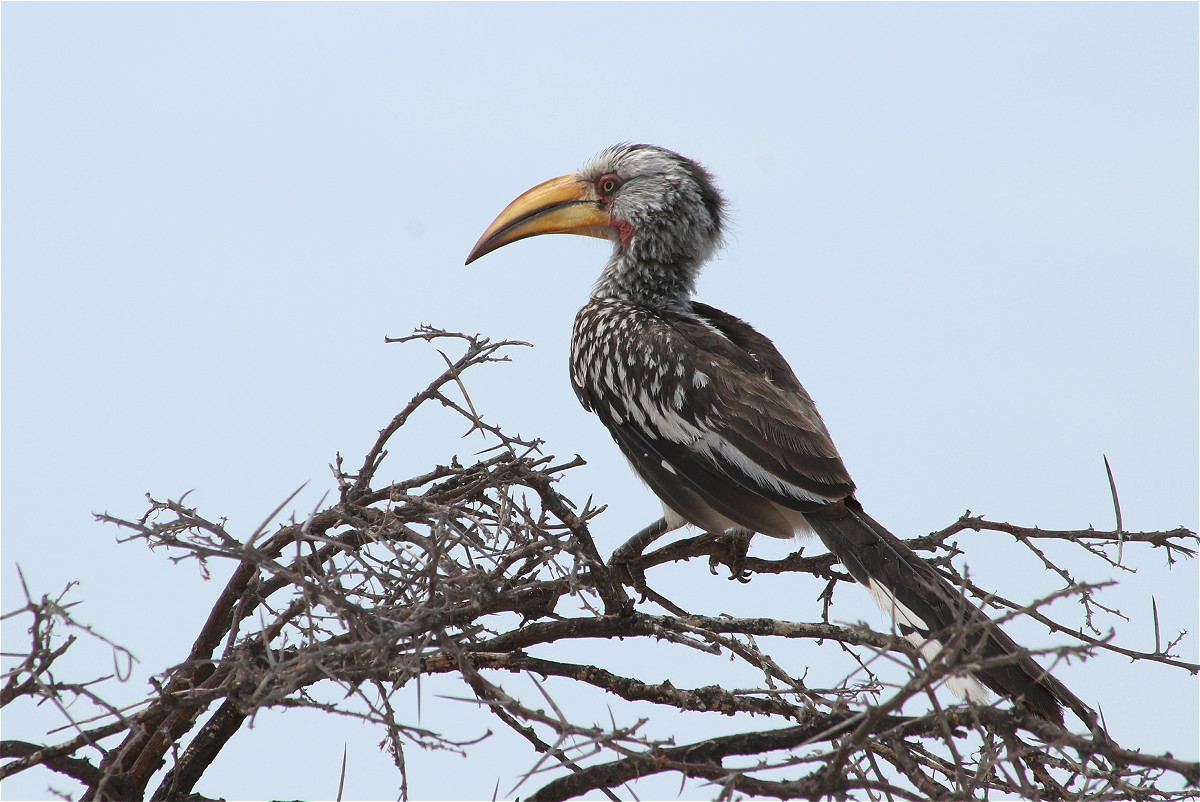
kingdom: Animalia
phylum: Chordata
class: Aves
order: Bucerotiformes
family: Bucerotidae
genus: Tockus
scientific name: Tockus leucomelas
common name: Southern yellow-billed hornbill
